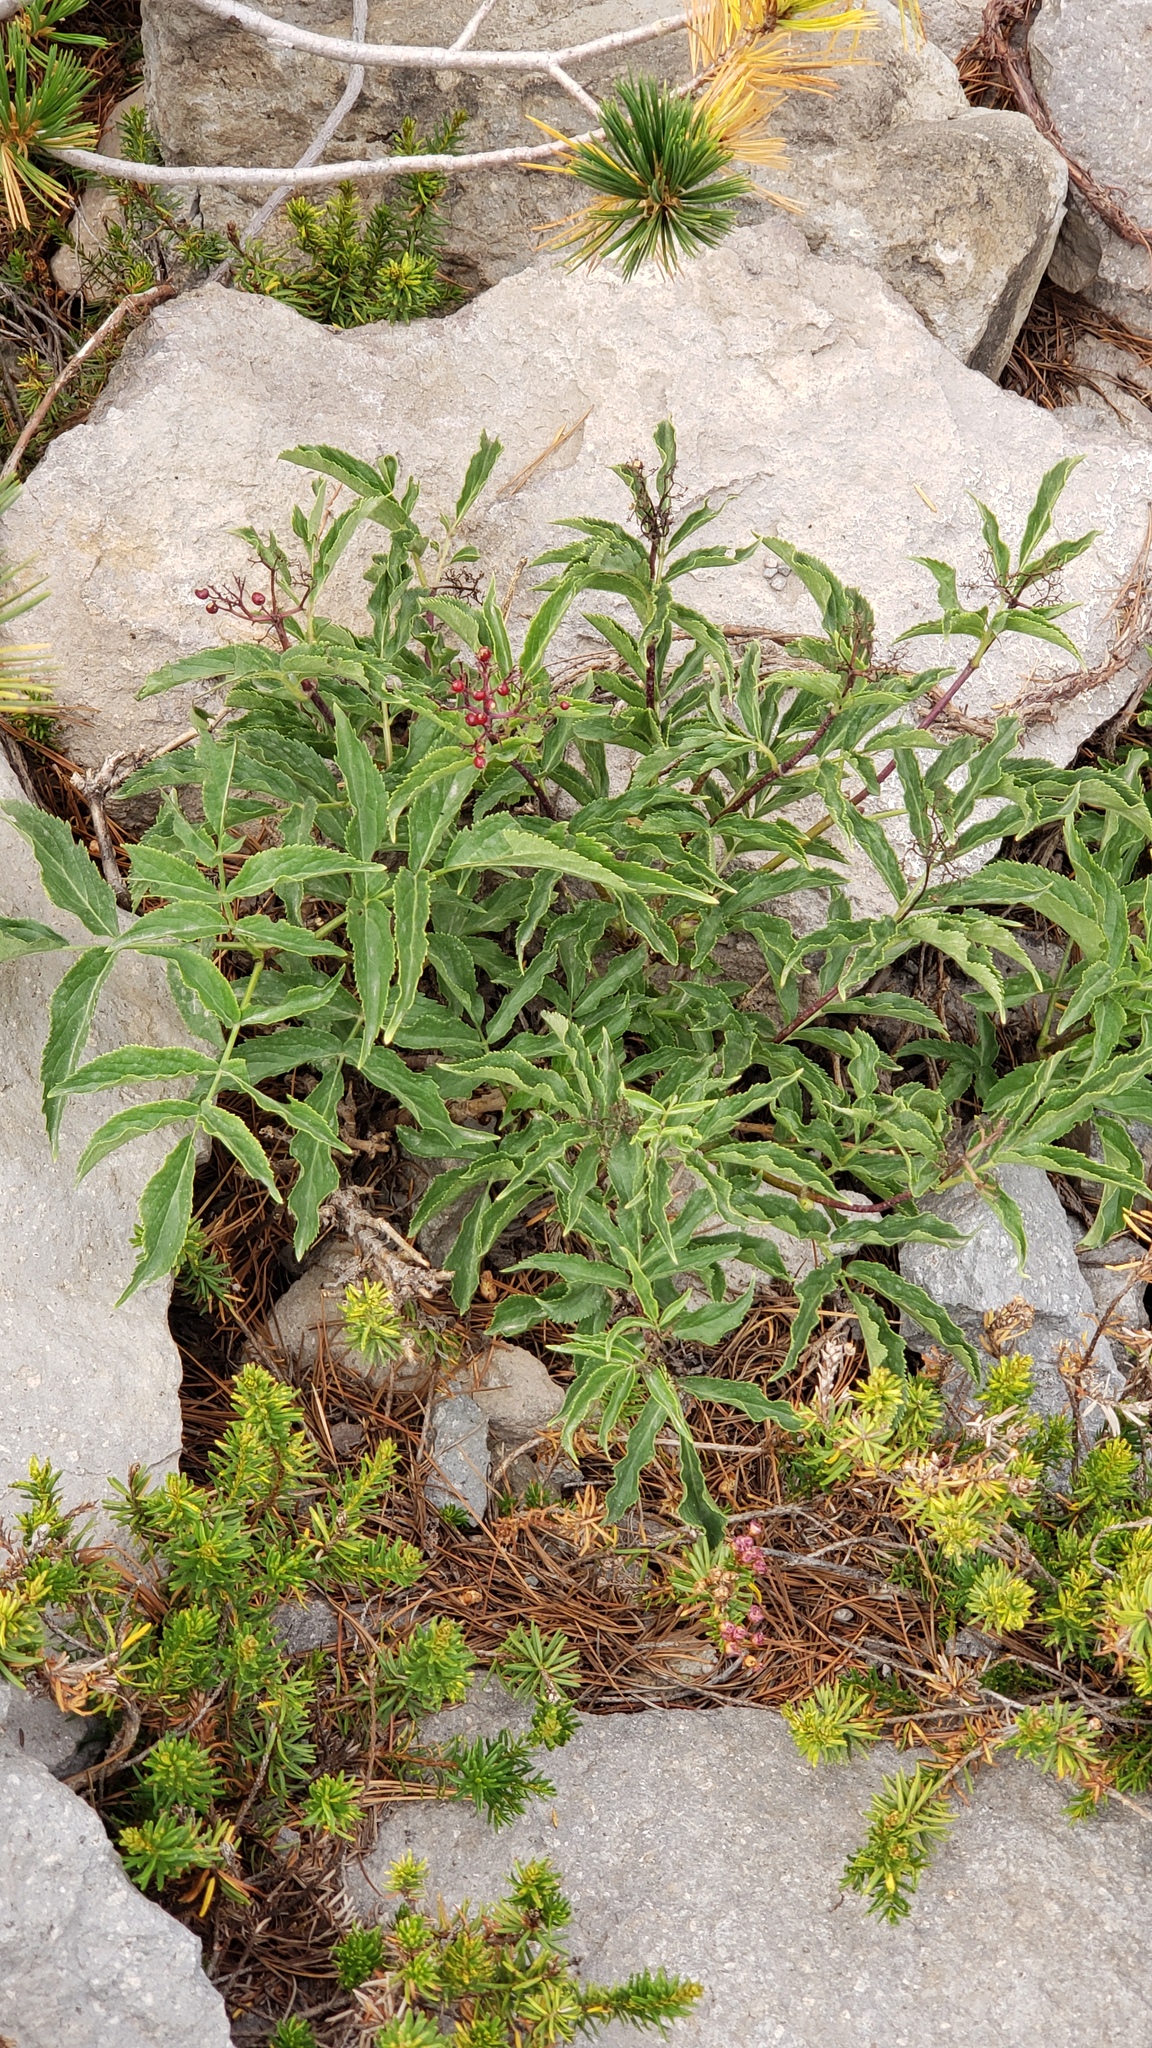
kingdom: Plantae
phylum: Tracheophyta
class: Magnoliopsida
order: Dipsacales
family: Viburnaceae
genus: Sambucus
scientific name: Sambucus racemosa
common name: Red-berried elder
